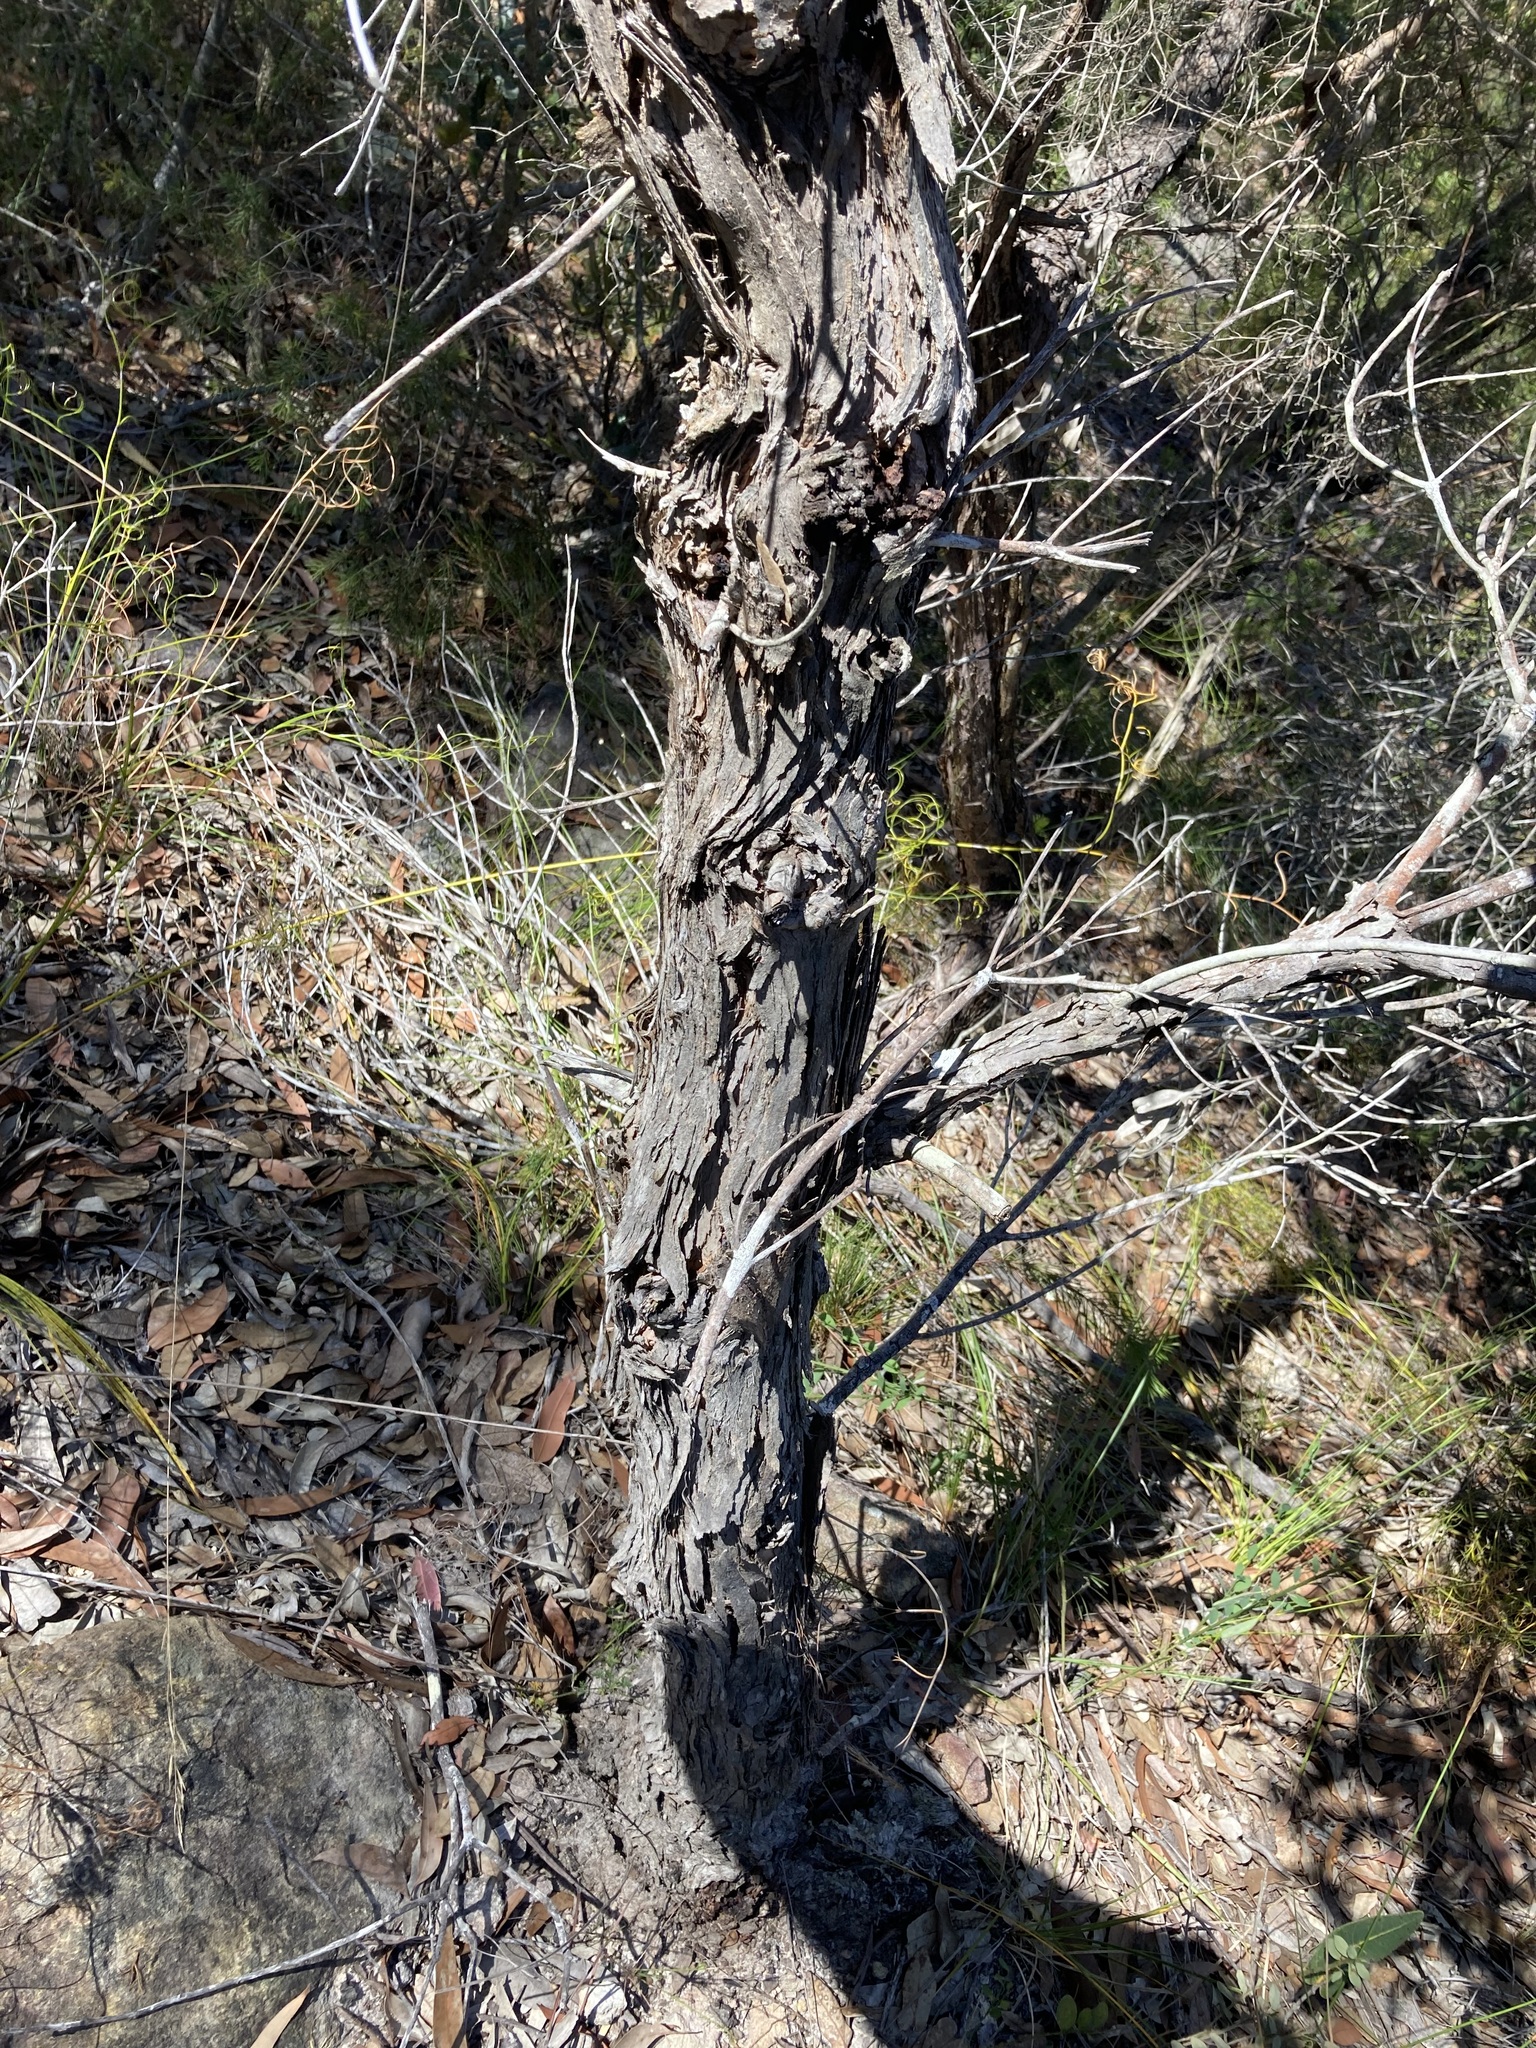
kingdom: Plantae
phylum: Tracheophyta
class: Magnoliopsida
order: Myrtales
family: Myrtaceae
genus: Angophora
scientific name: Angophora hispida
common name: Dwarf-apple
